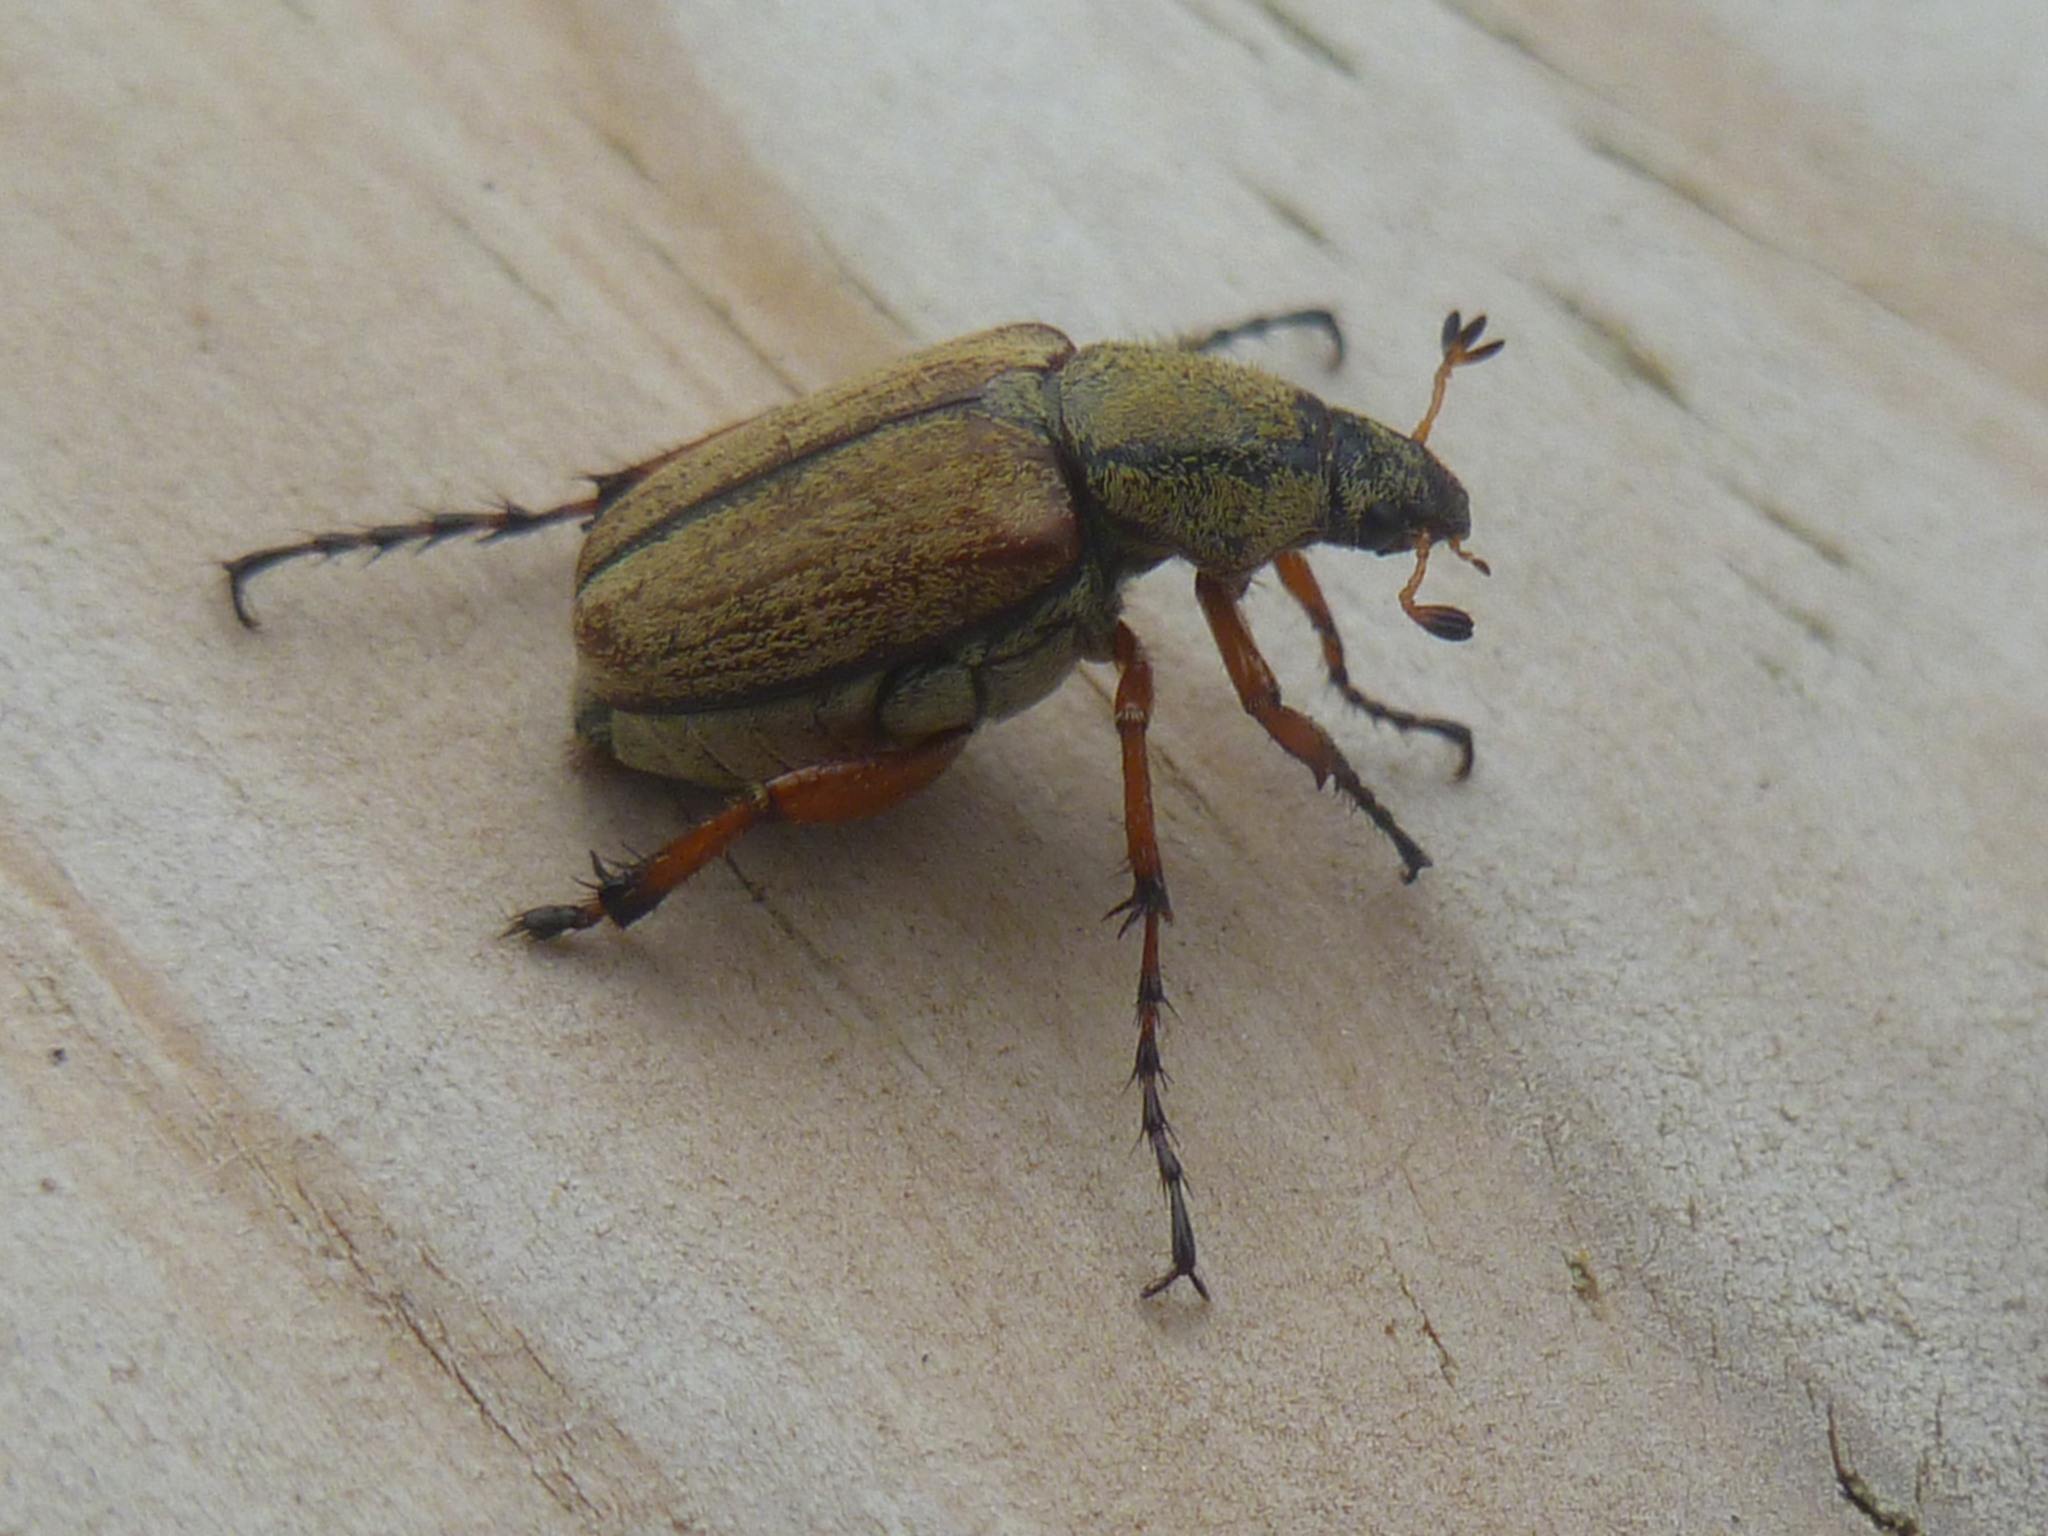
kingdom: Animalia
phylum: Arthropoda
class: Insecta
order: Coleoptera
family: Scarabaeidae
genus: Macrodactylus
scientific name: Macrodactylus subspinosus
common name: American rose chafer
